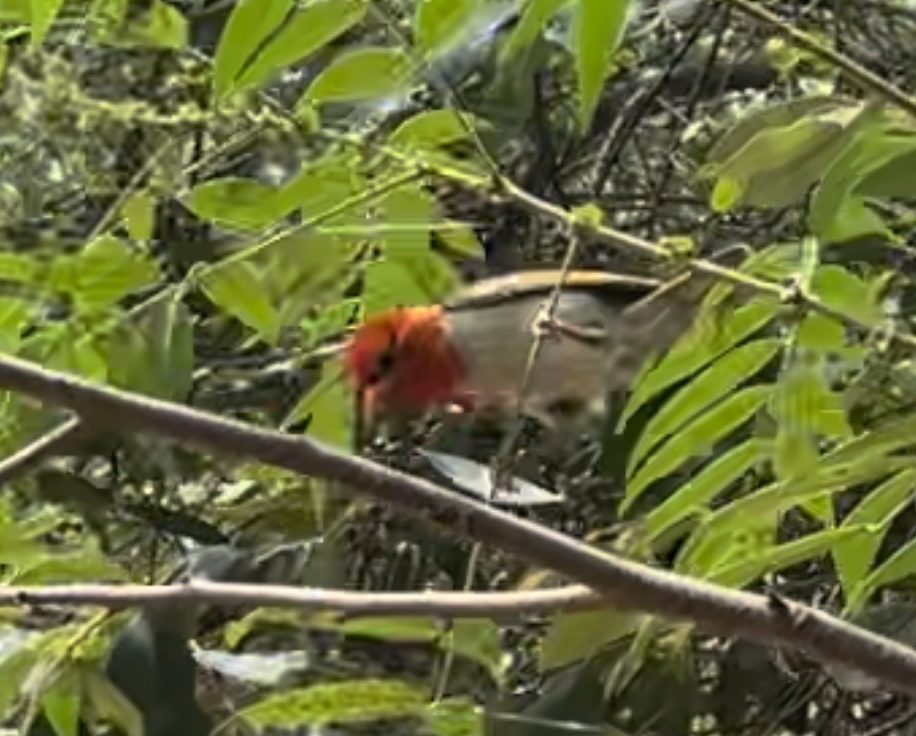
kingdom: Animalia
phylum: Chordata
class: Aves
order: Passeriformes
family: Ploceidae
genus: Anaplectes
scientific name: Anaplectes rubriceps
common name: Red-headed weaver
